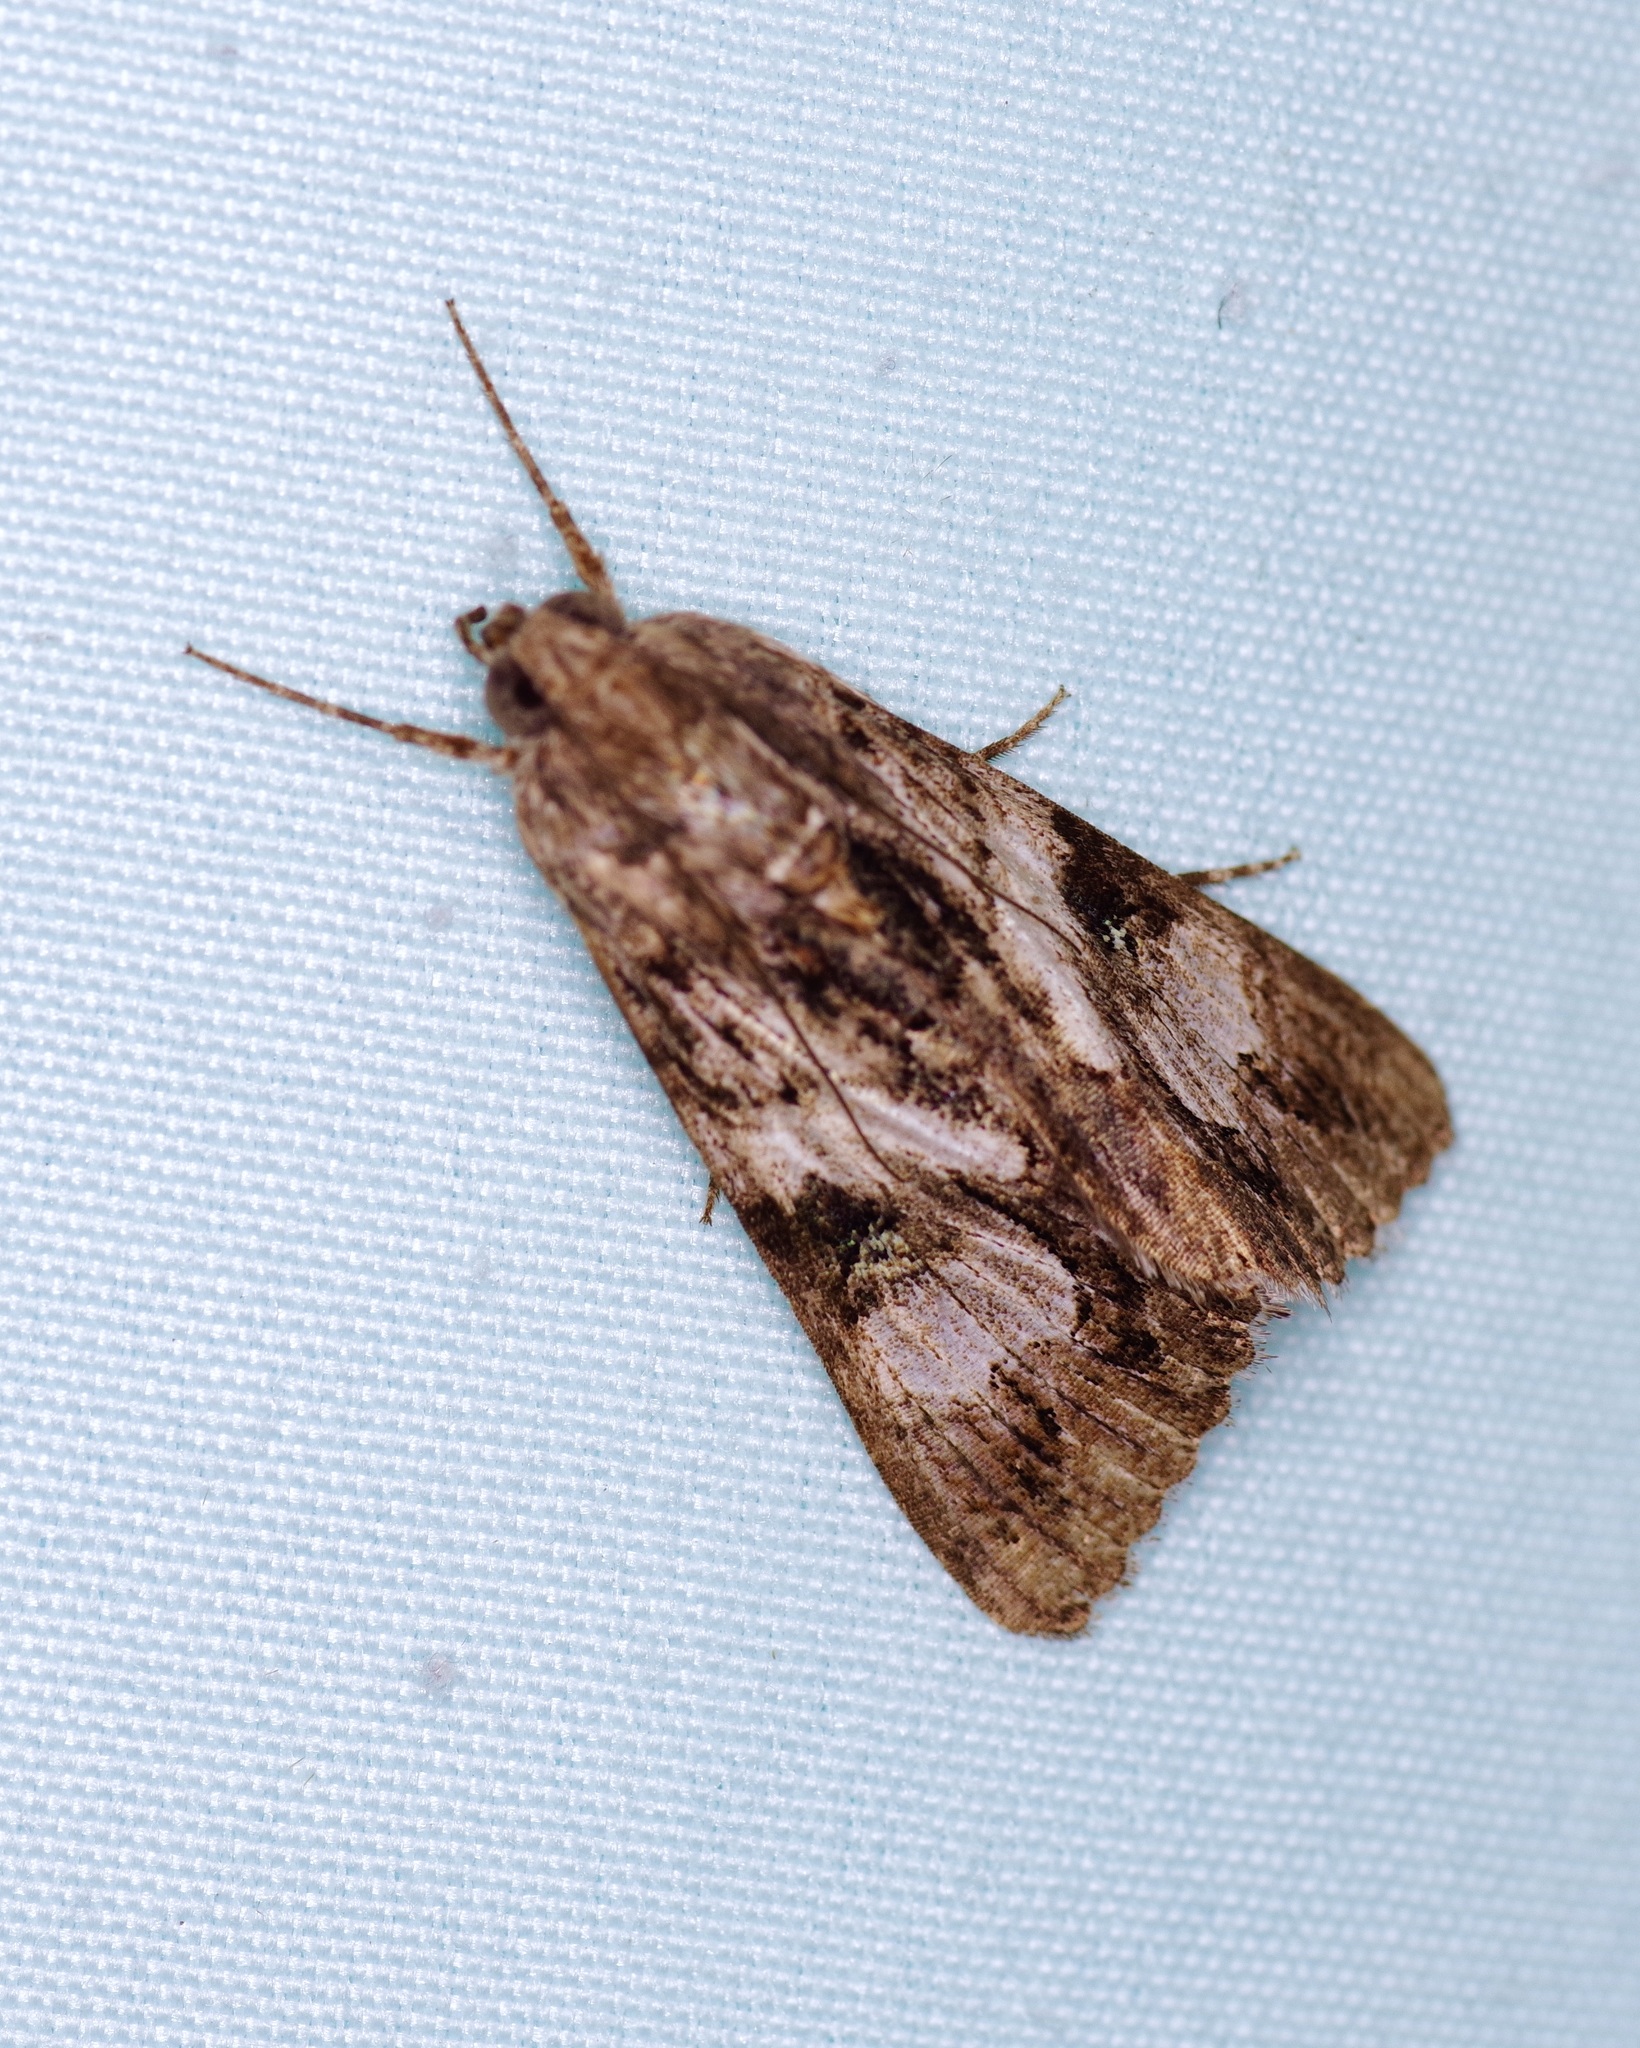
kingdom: Animalia
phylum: Arthropoda
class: Insecta
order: Lepidoptera
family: Erebidae
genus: Melipotis
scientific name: Melipotis jucunda
